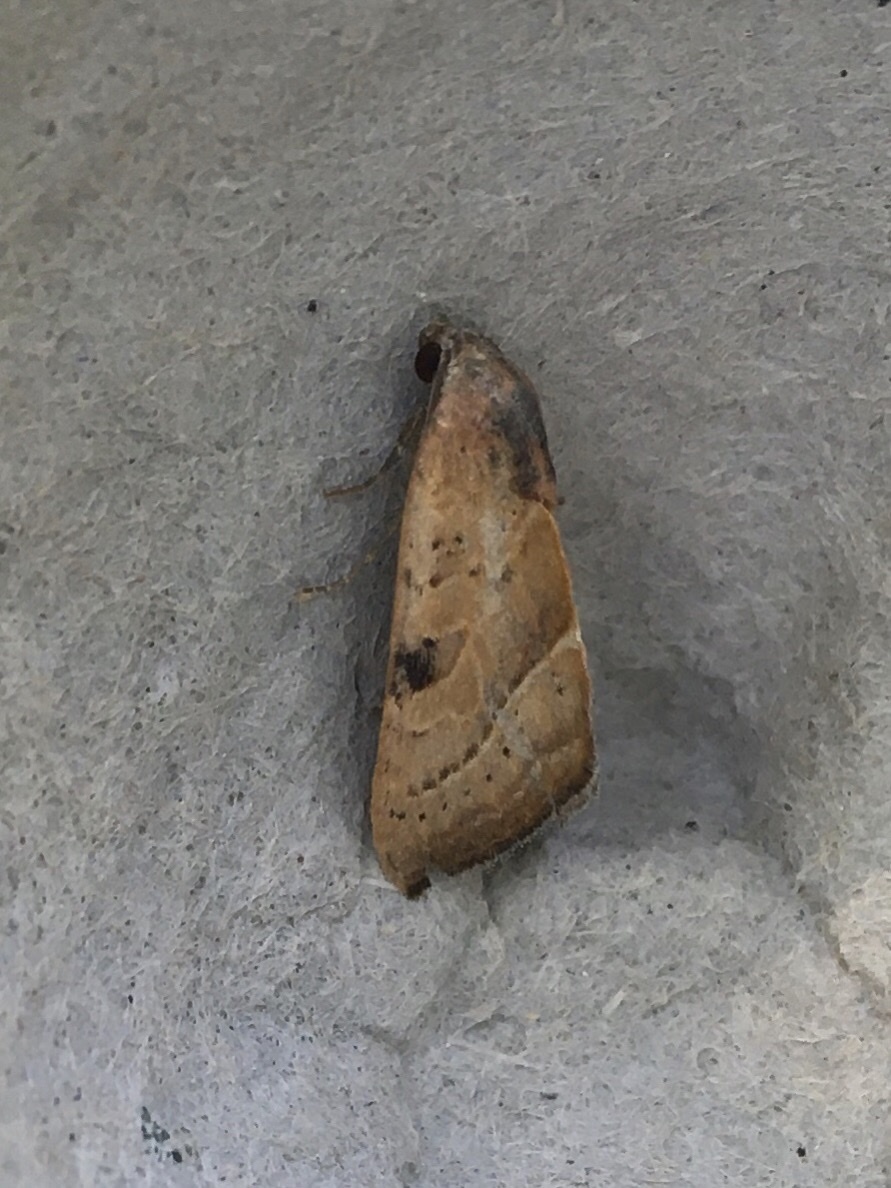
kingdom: Animalia
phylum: Arthropoda
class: Insecta
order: Lepidoptera
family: Noctuidae
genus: Galgula
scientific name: Galgula partita
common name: Wedgeling
